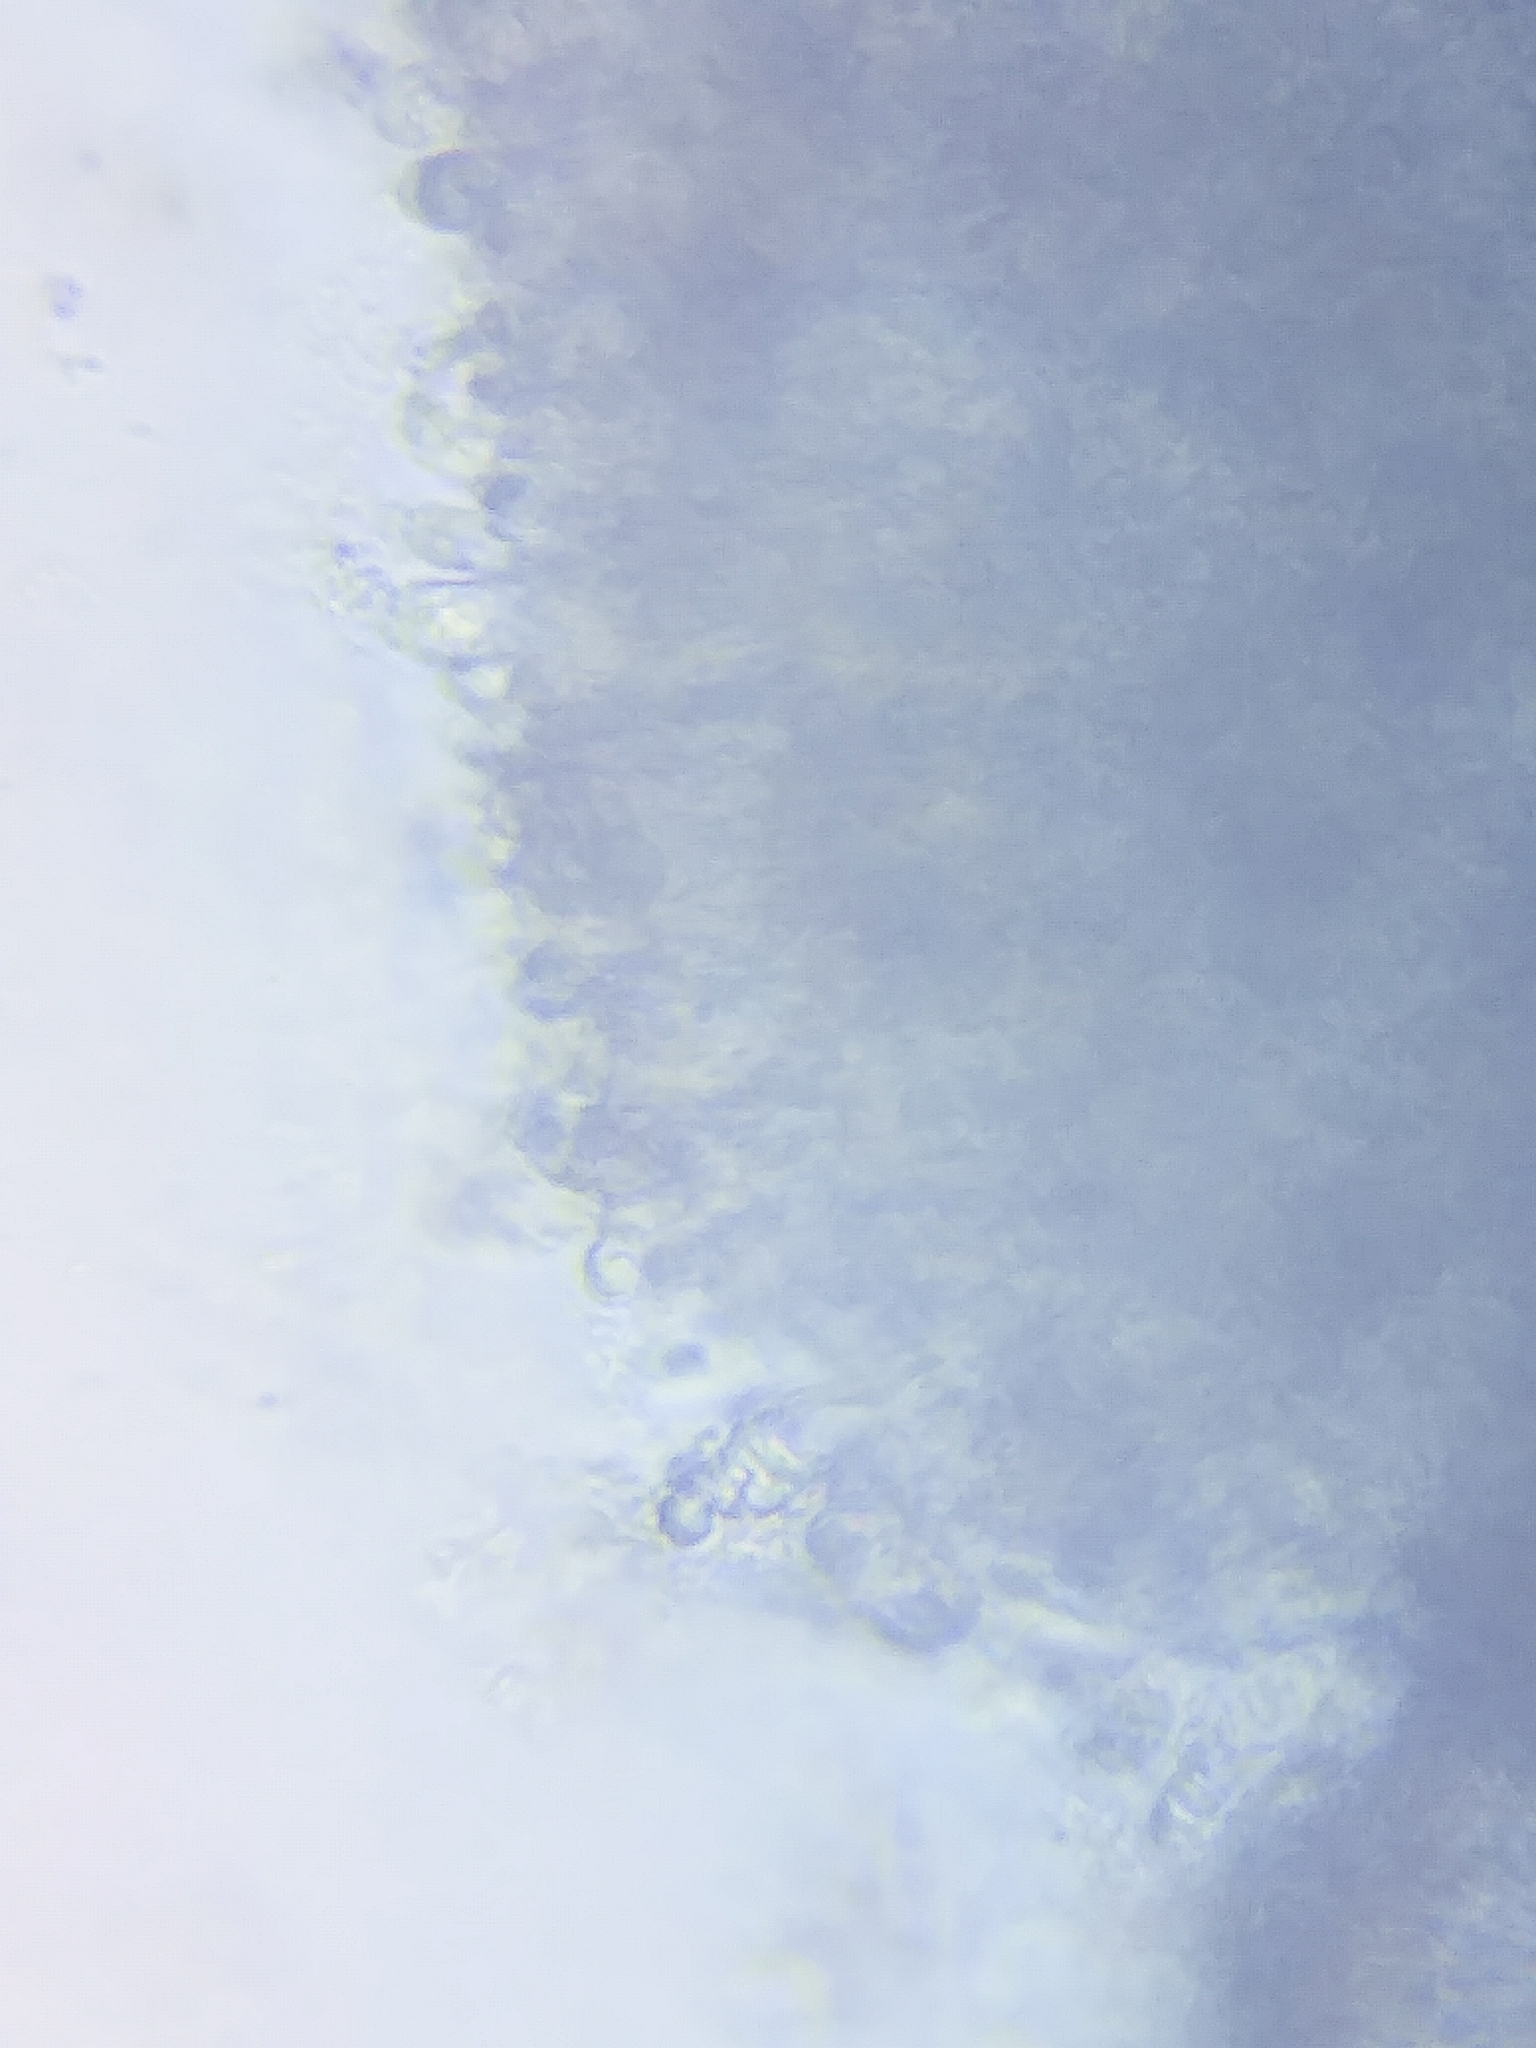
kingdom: Fungi
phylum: Basidiomycota
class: Agaricomycetes
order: Agaricales
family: Hygrophoraceae
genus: Hygrocybe
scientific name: Hygrocybe angustifolia
